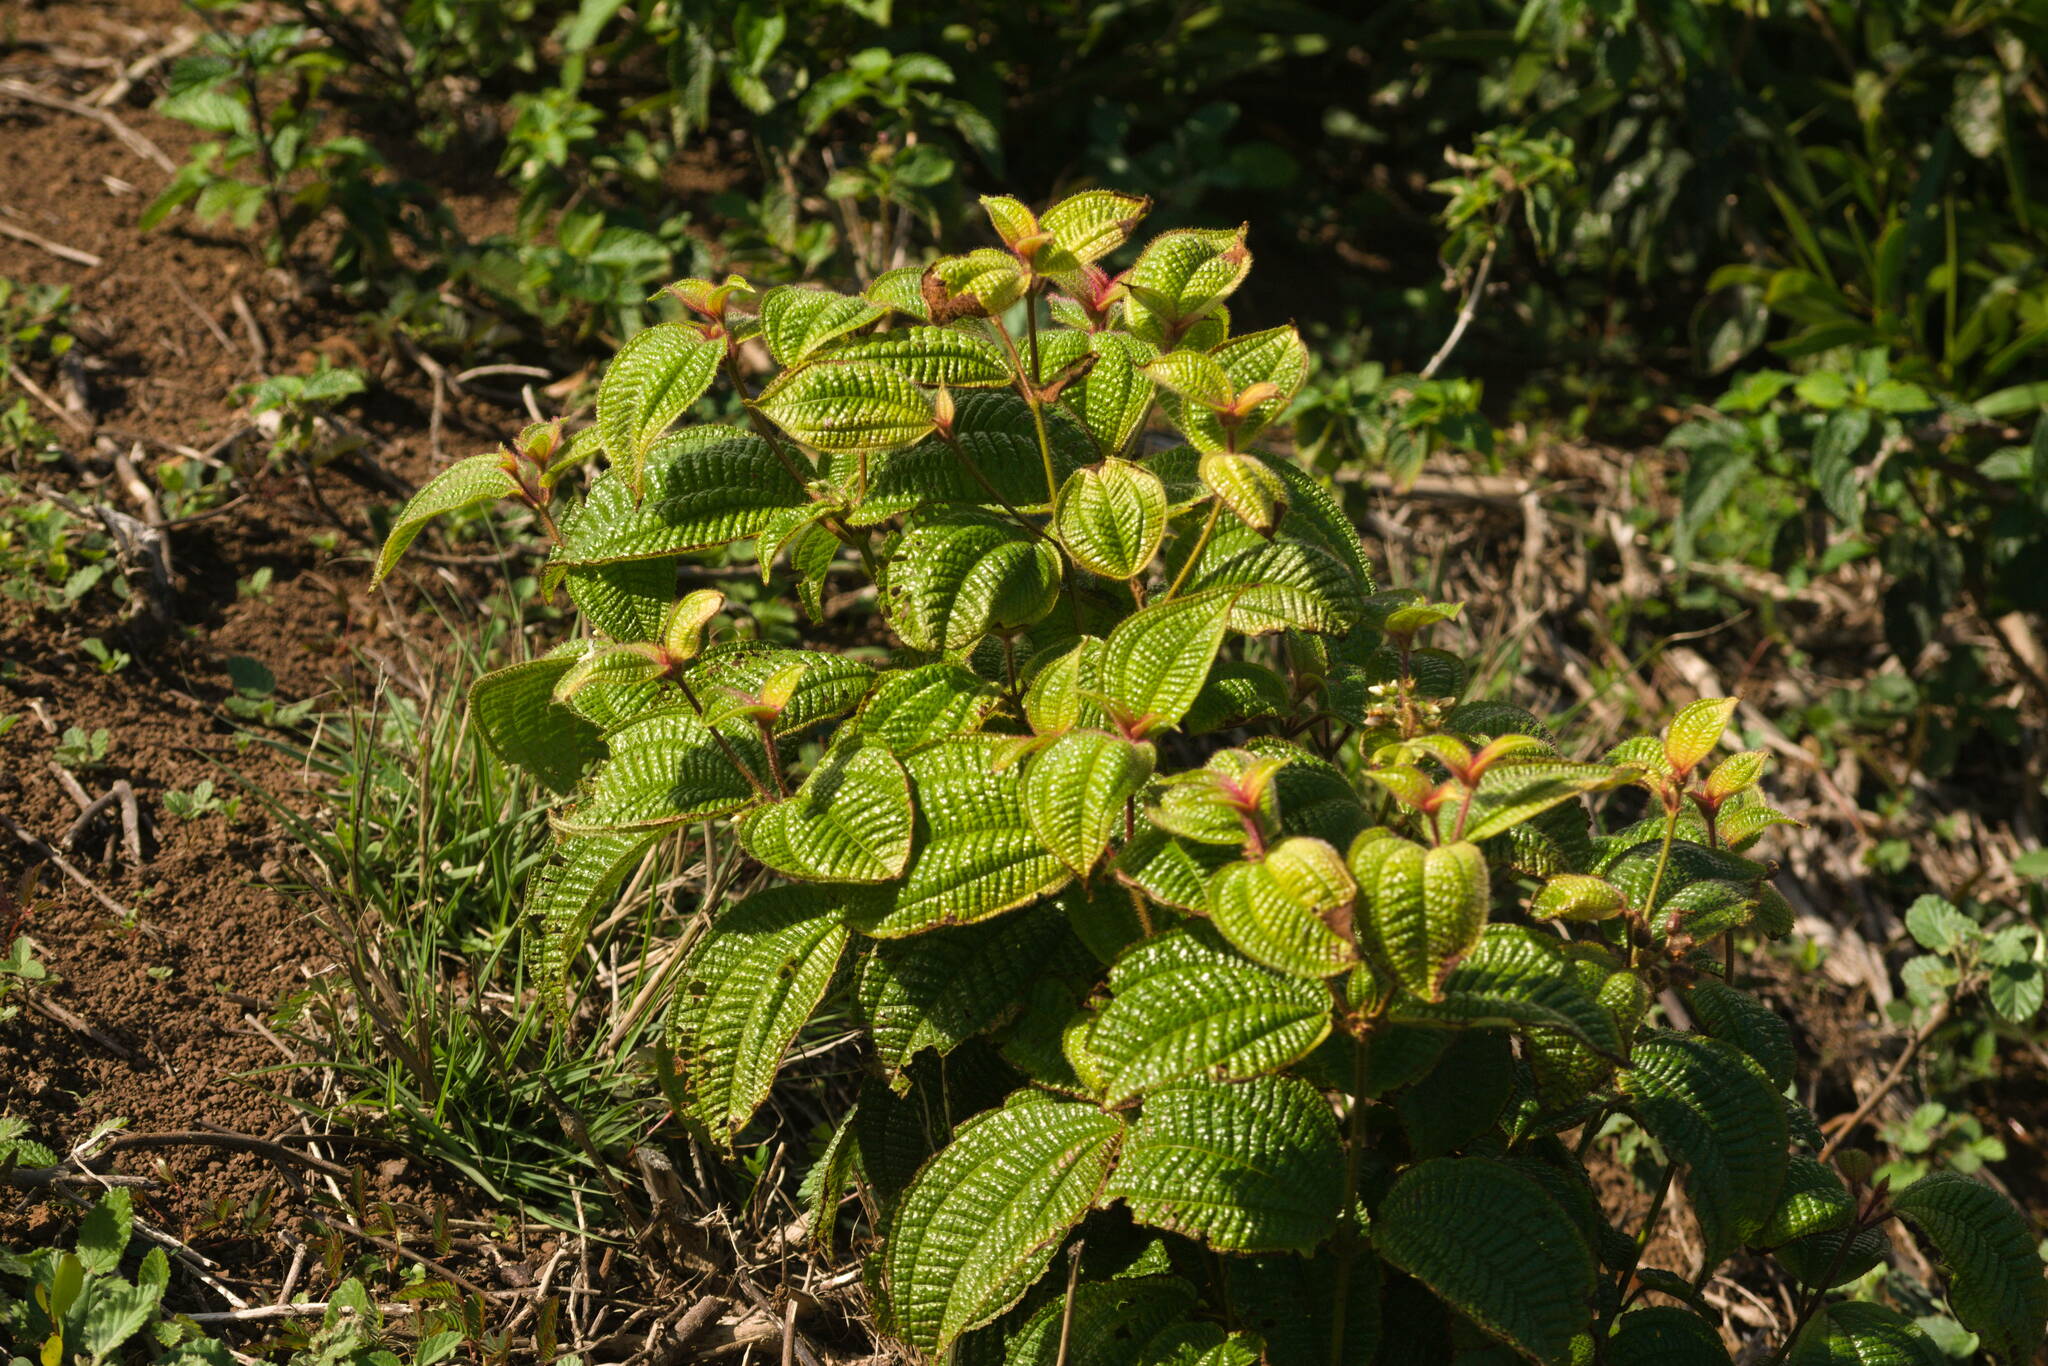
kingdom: Plantae
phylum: Tracheophyta
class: Magnoliopsida
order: Myrtales
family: Melastomataceae
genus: Miconia
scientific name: Miconia crenata
